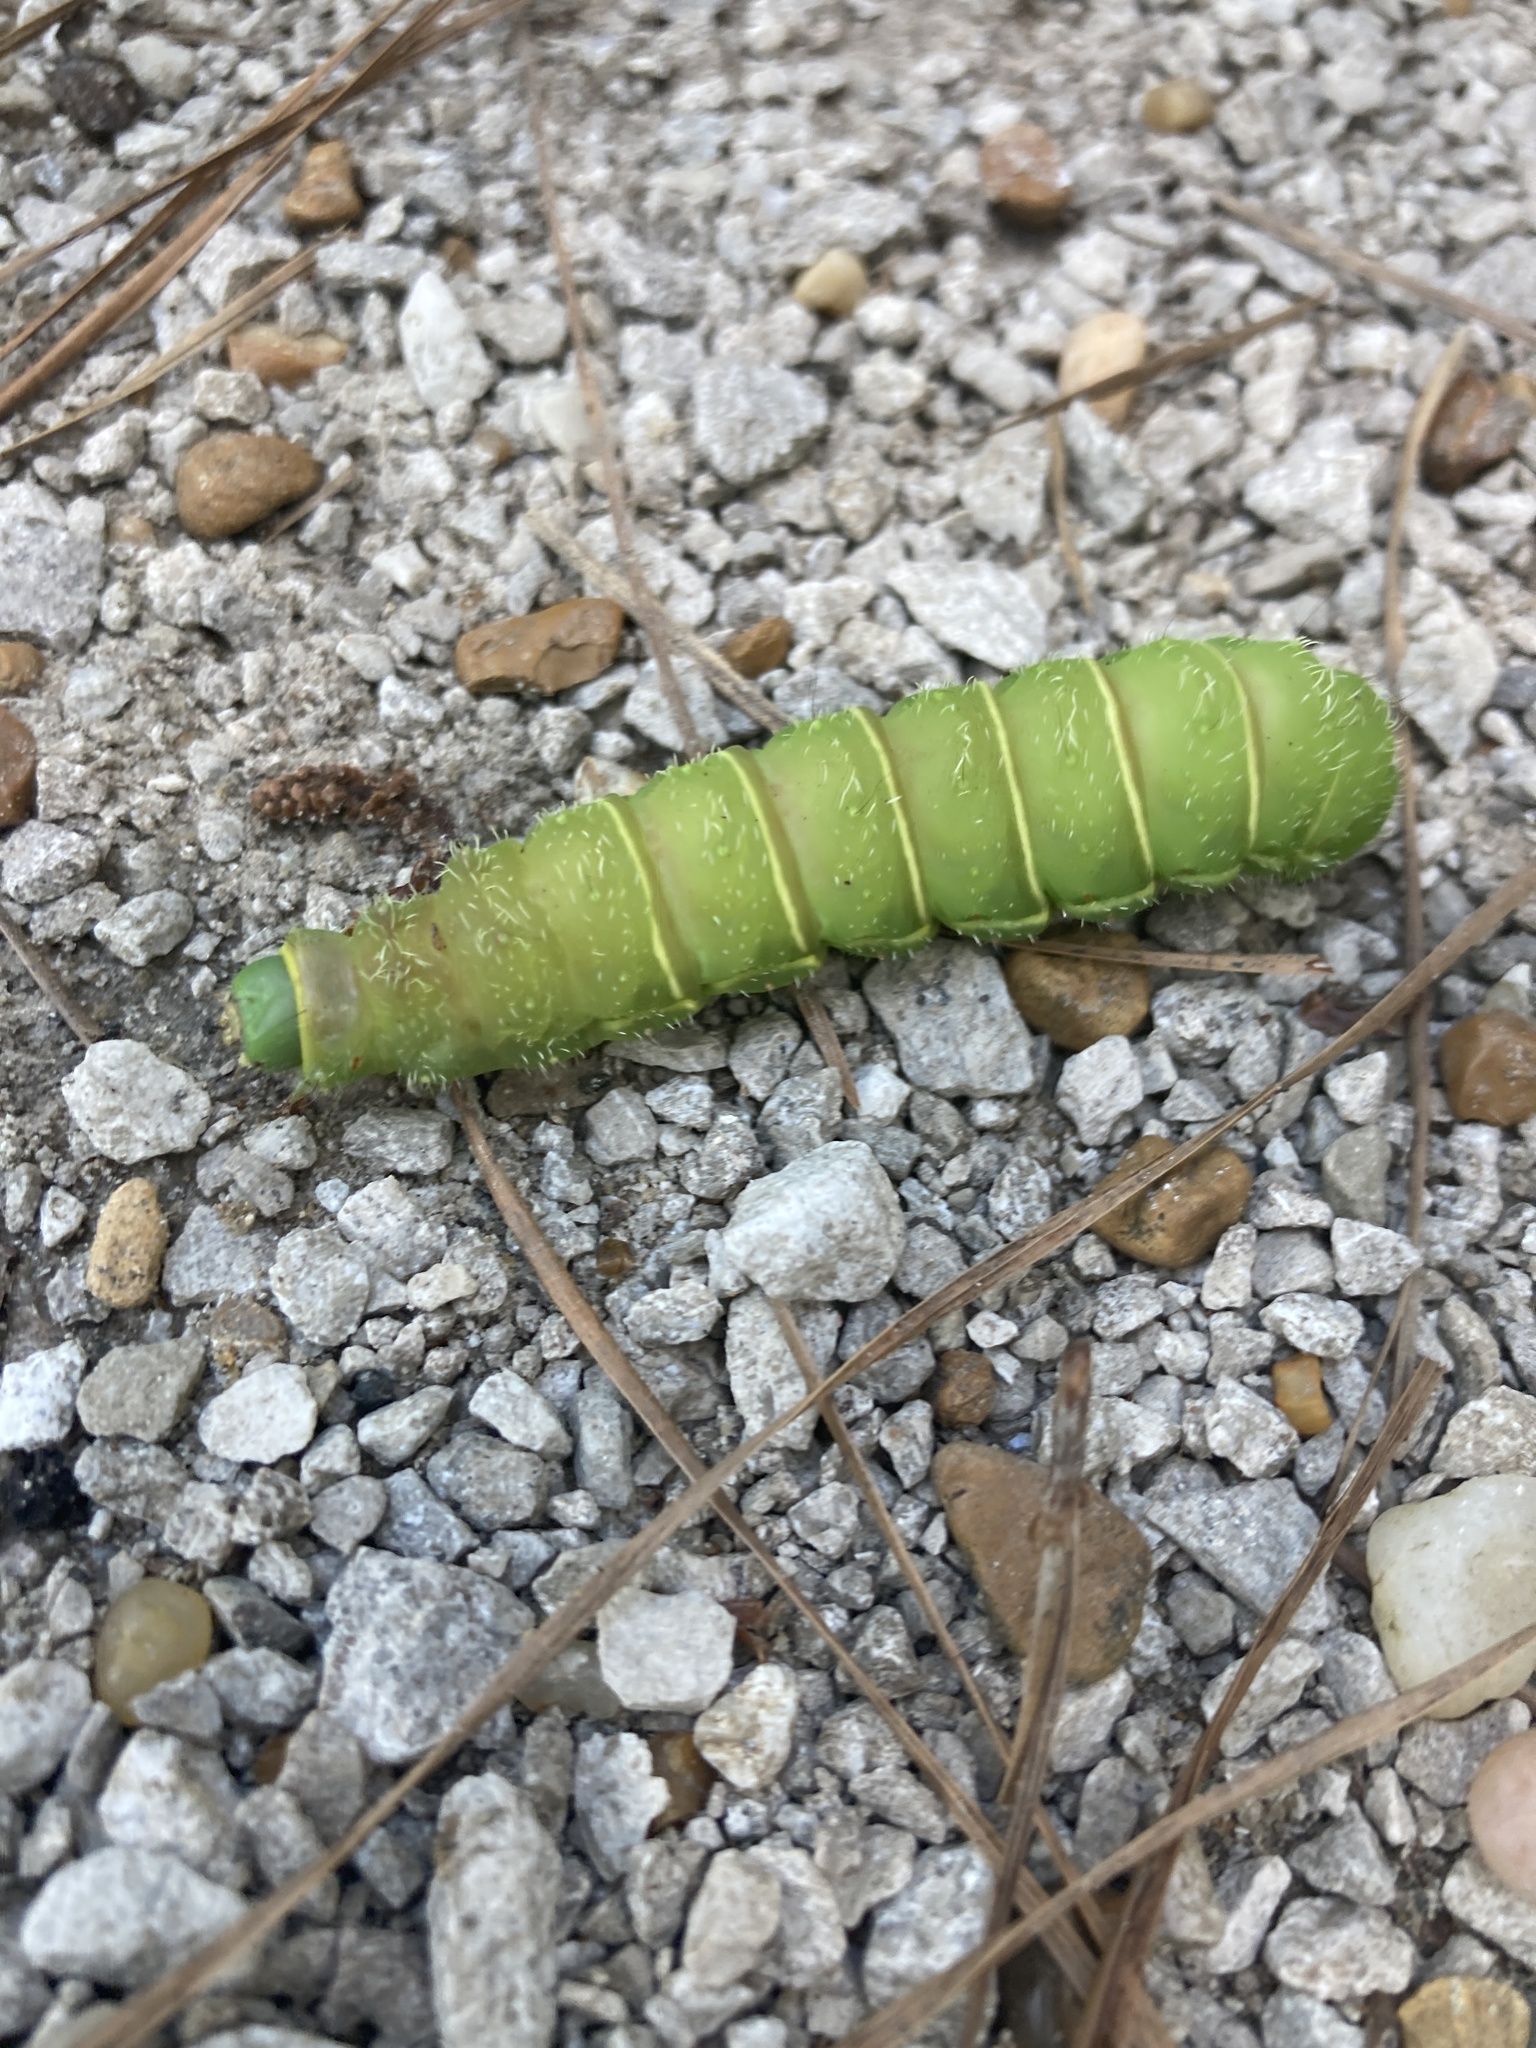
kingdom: Animalia
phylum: Arthropoda
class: Insecta
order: Lepidoptera
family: Saturniidae
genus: Actias
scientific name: Actias luna
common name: Luna moth
